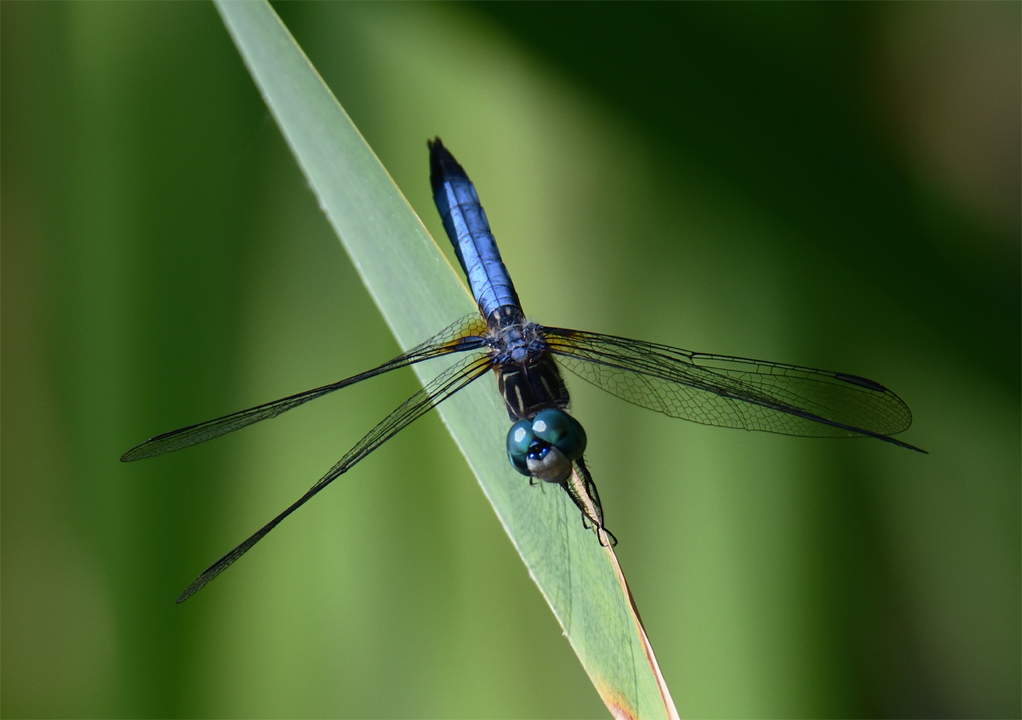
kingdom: Animalia
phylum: Arthropoda
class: Insecta
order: Odonata
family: Libellulidae
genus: Pachydiplax
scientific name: Pachydiplax longipennis
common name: Blue dasher
